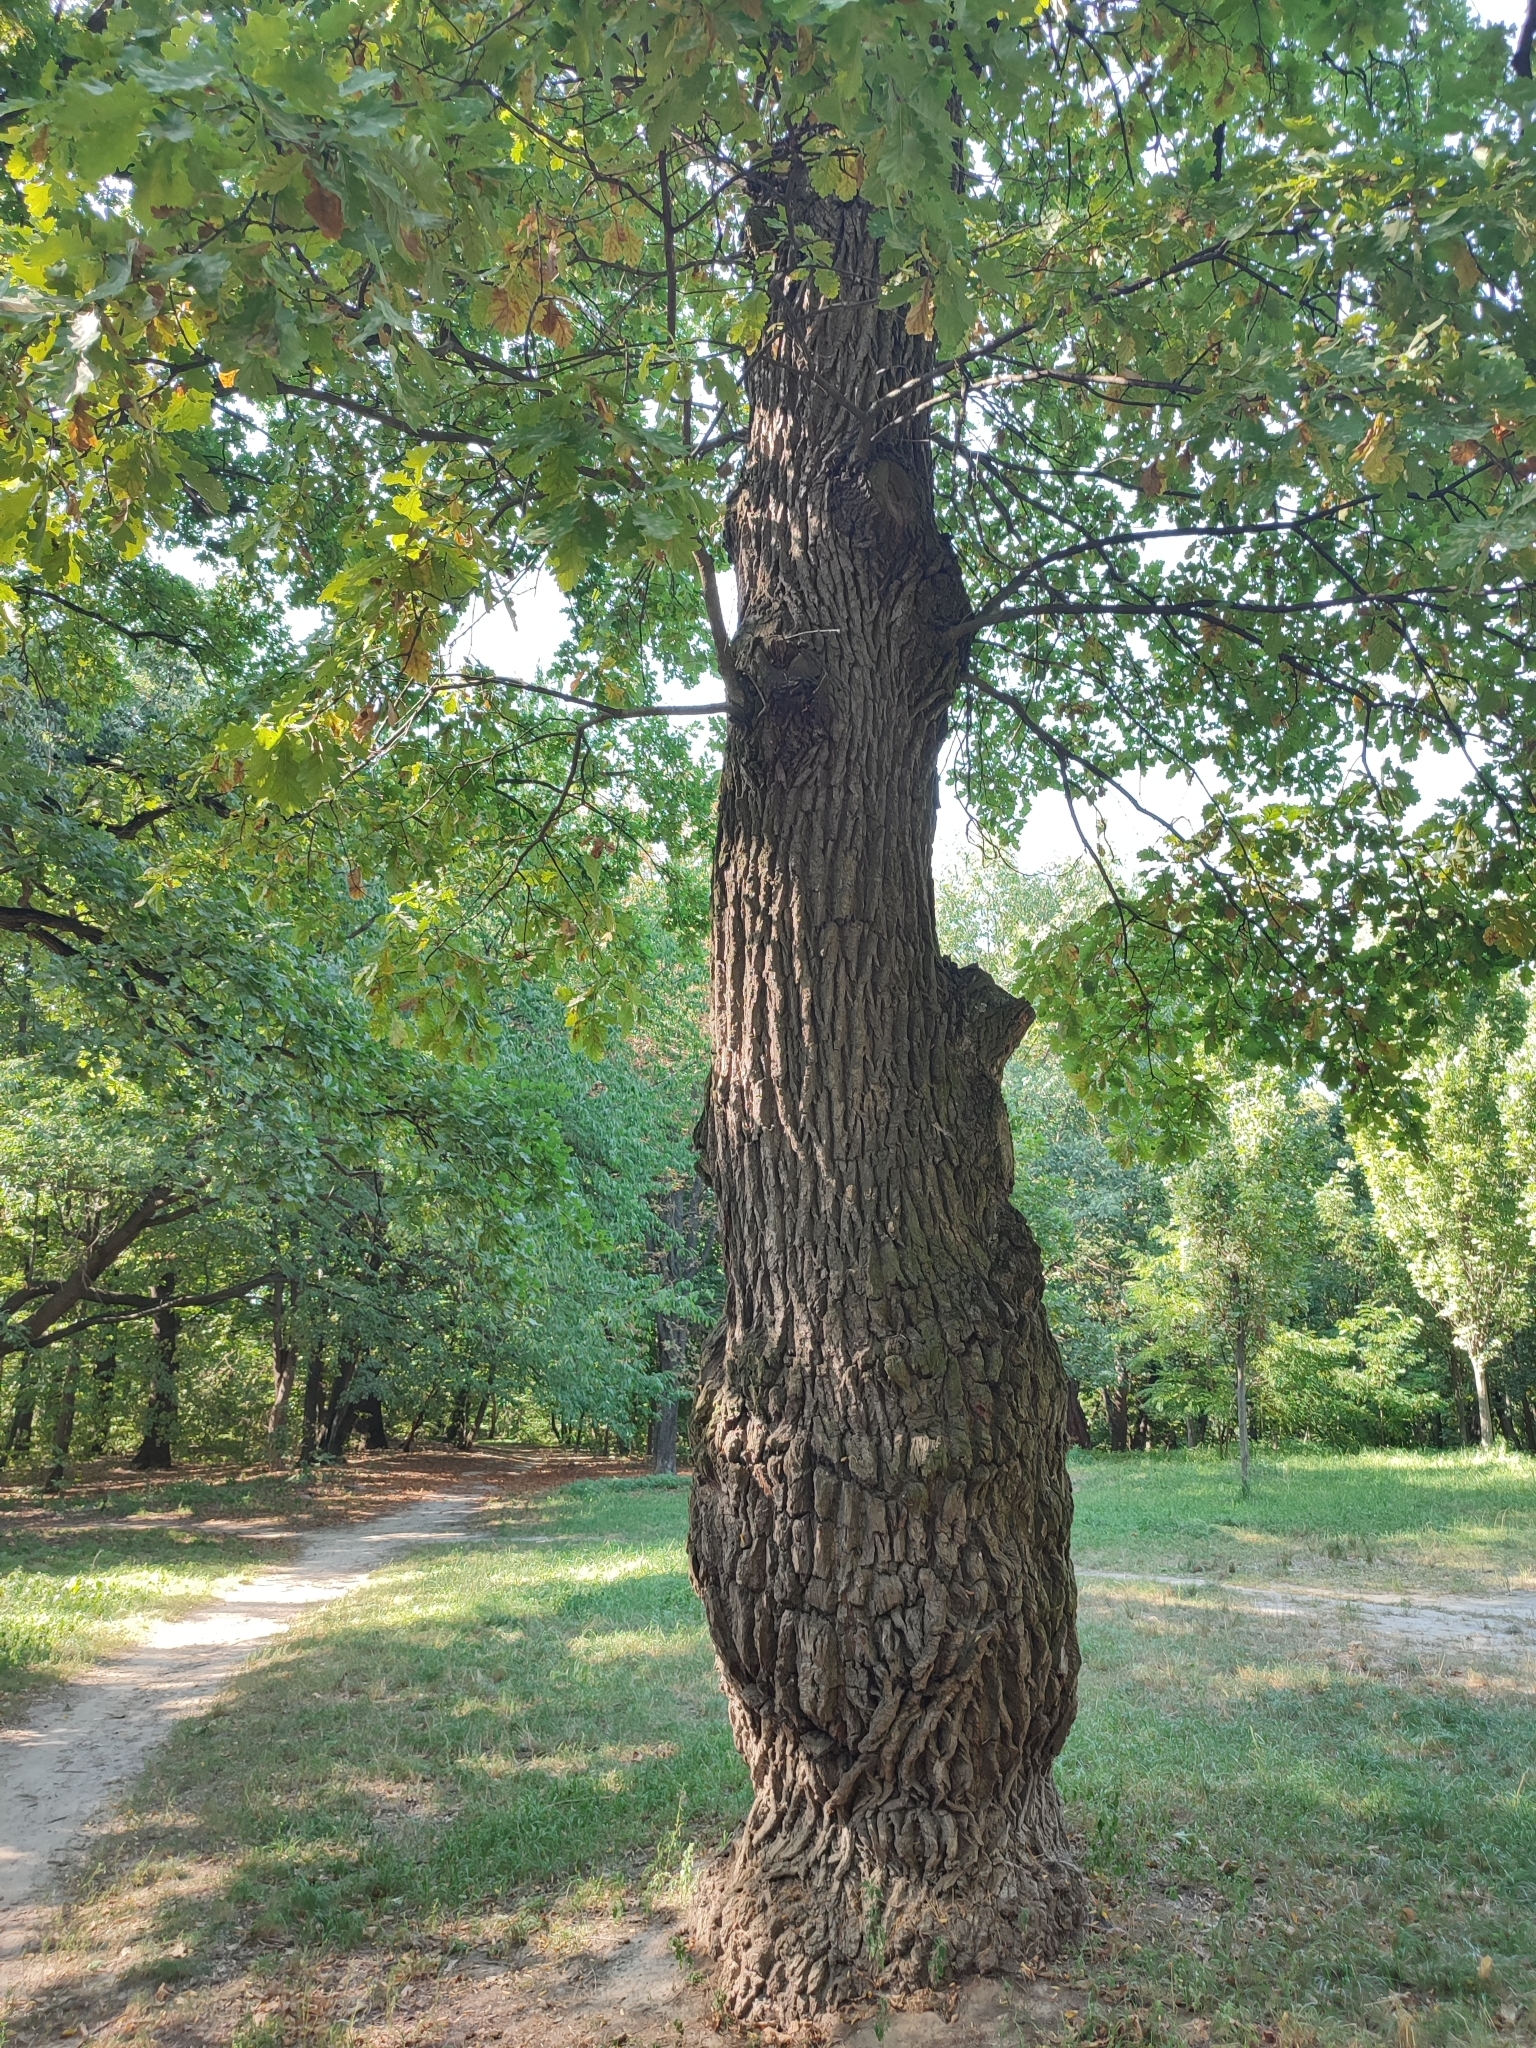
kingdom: Plantae
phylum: Tracheophyta
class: Magnoliopsida
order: Fagales
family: Fagaceae
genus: Quercus
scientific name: Quercus robur
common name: Pedunculate oak
